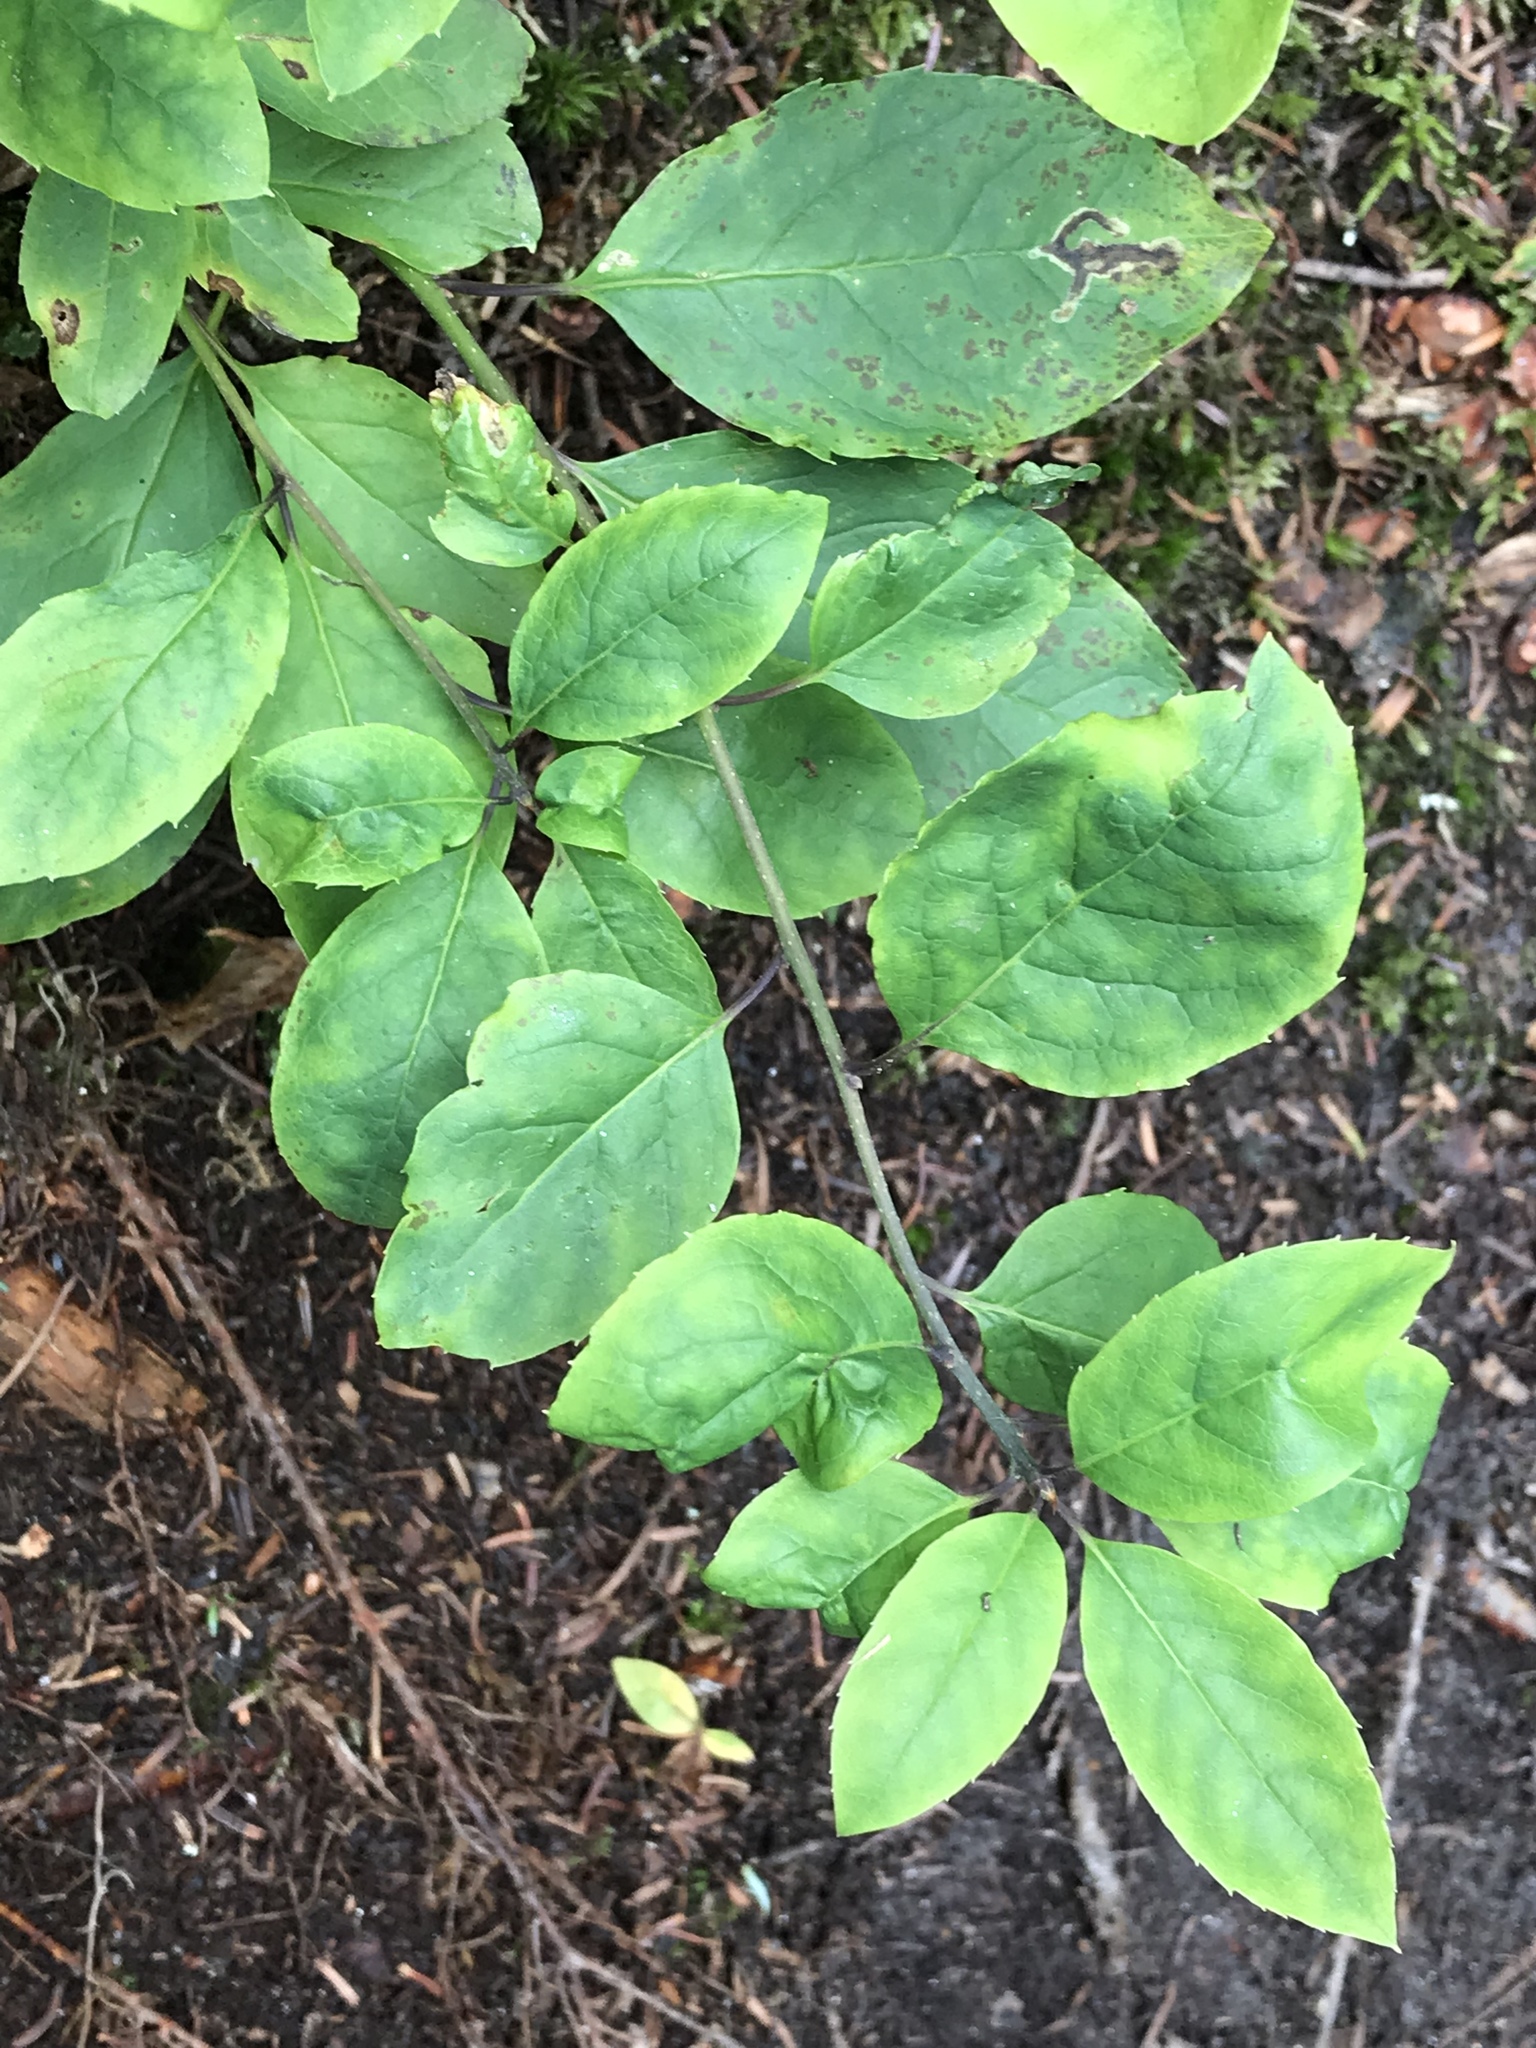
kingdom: Plantae
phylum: Tracheophyta
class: Magnoliopsida
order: Aquifoliales
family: Aquifoliaceae
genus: Ilex
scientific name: Ilex mucronata
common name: Catberry
